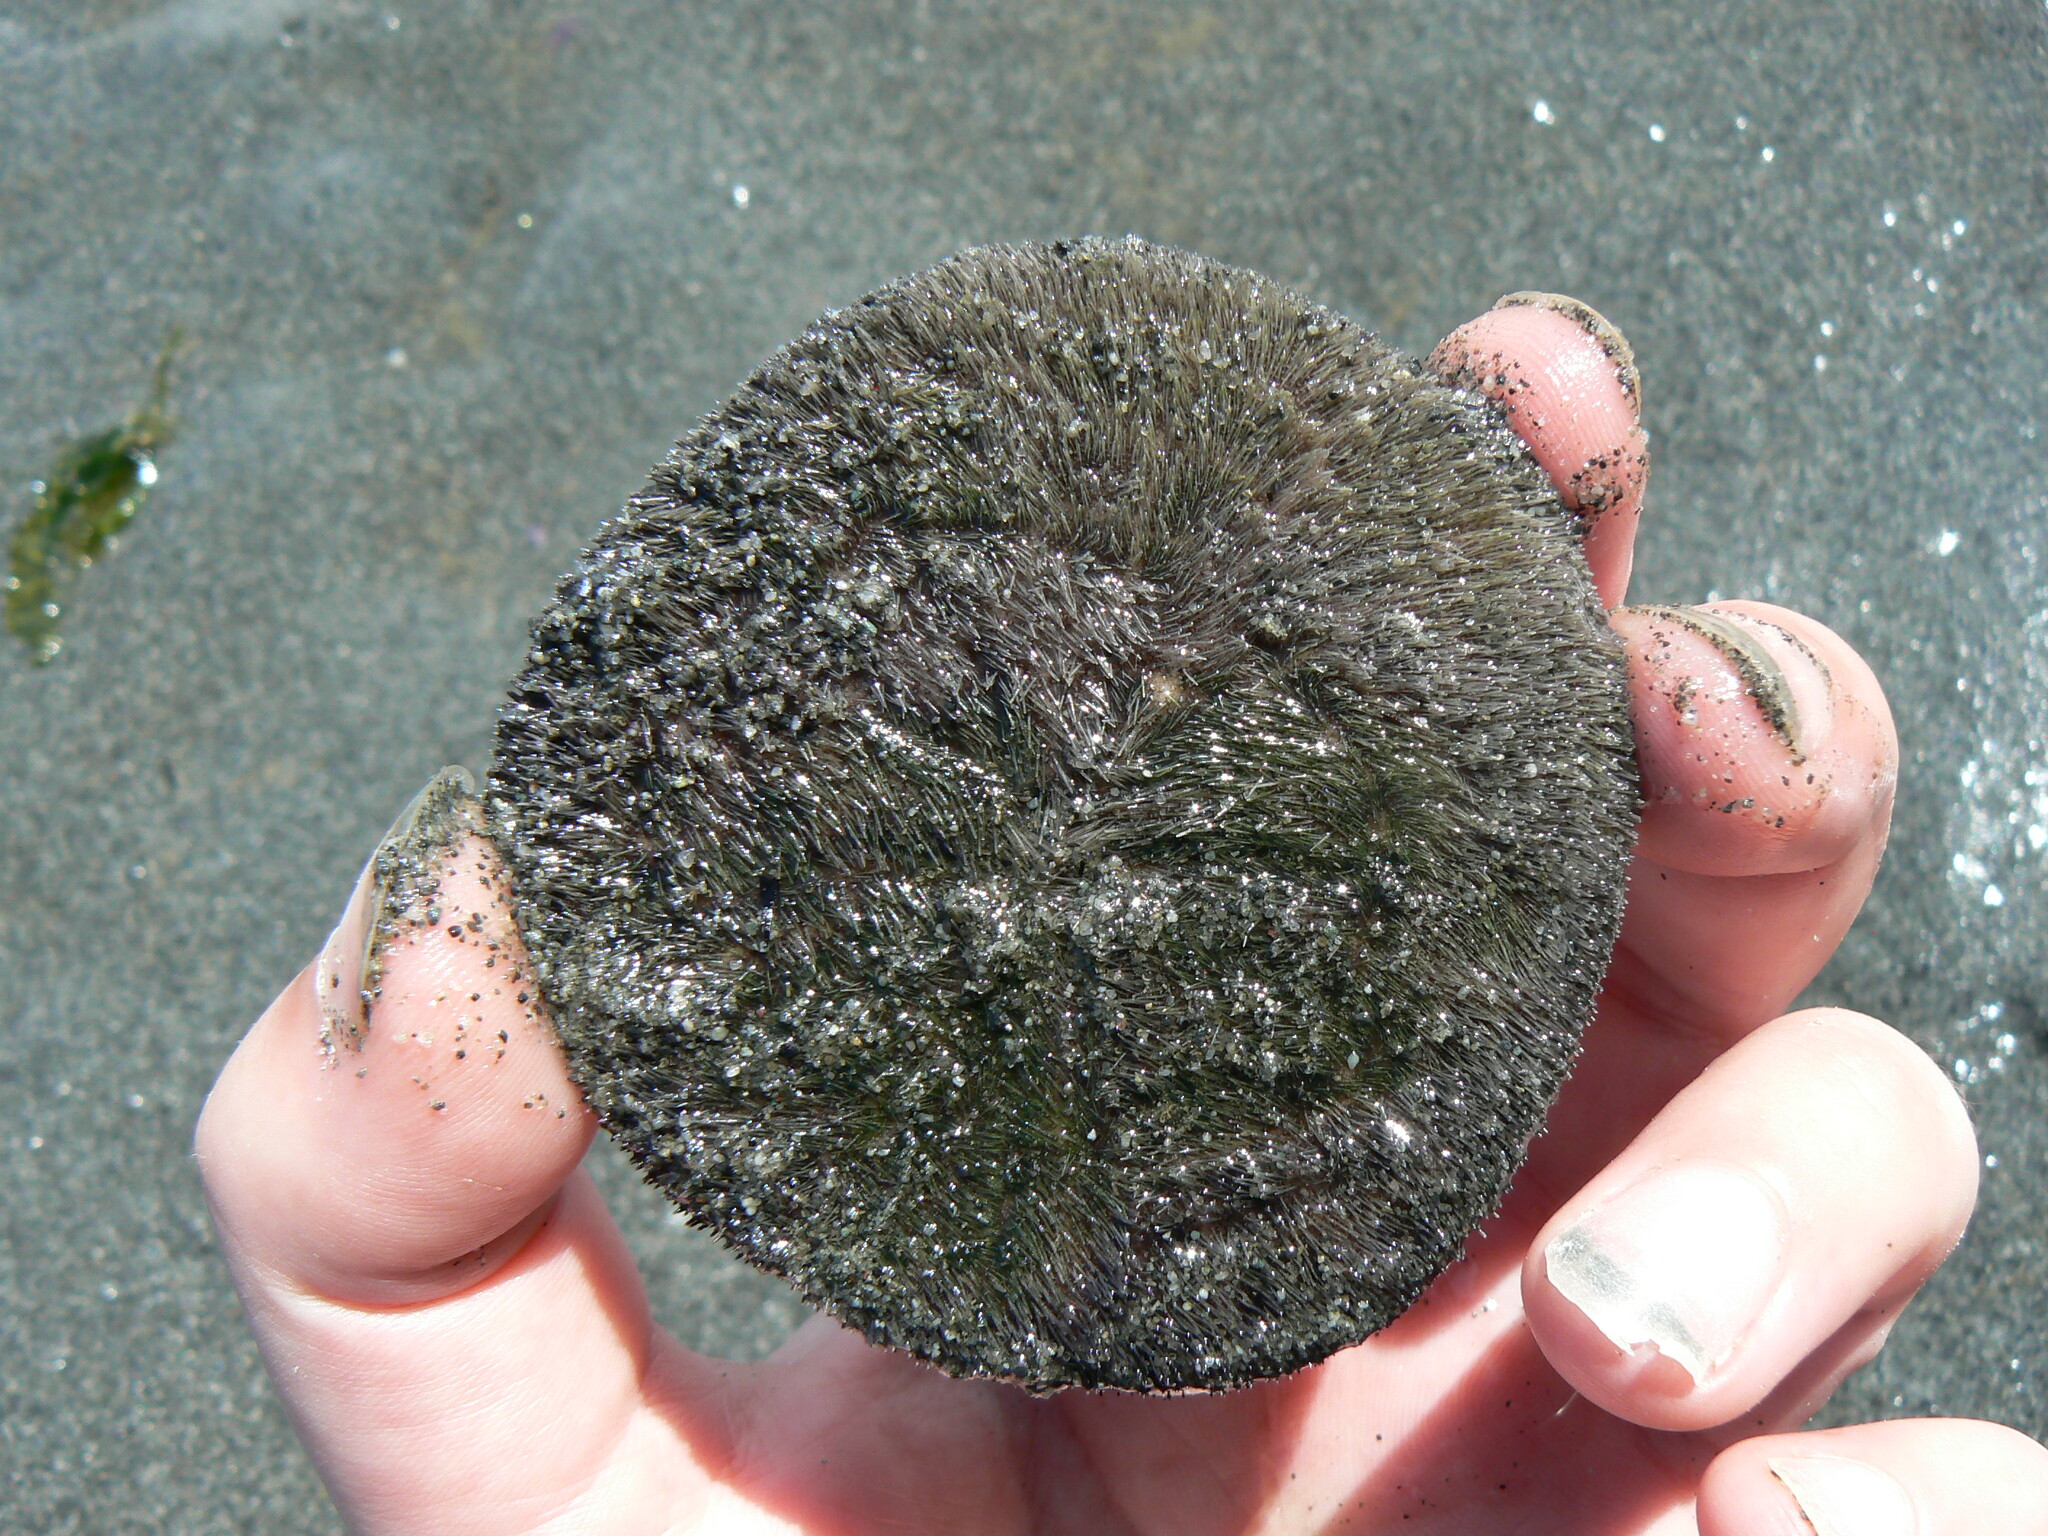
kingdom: Animalia
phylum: Echinodermata
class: Echinoidea
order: Echinolampadacea
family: Dendrasteridae
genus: Dendraster
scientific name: Dendraster excentricus
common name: Eccentric sand dollar sea urchin
